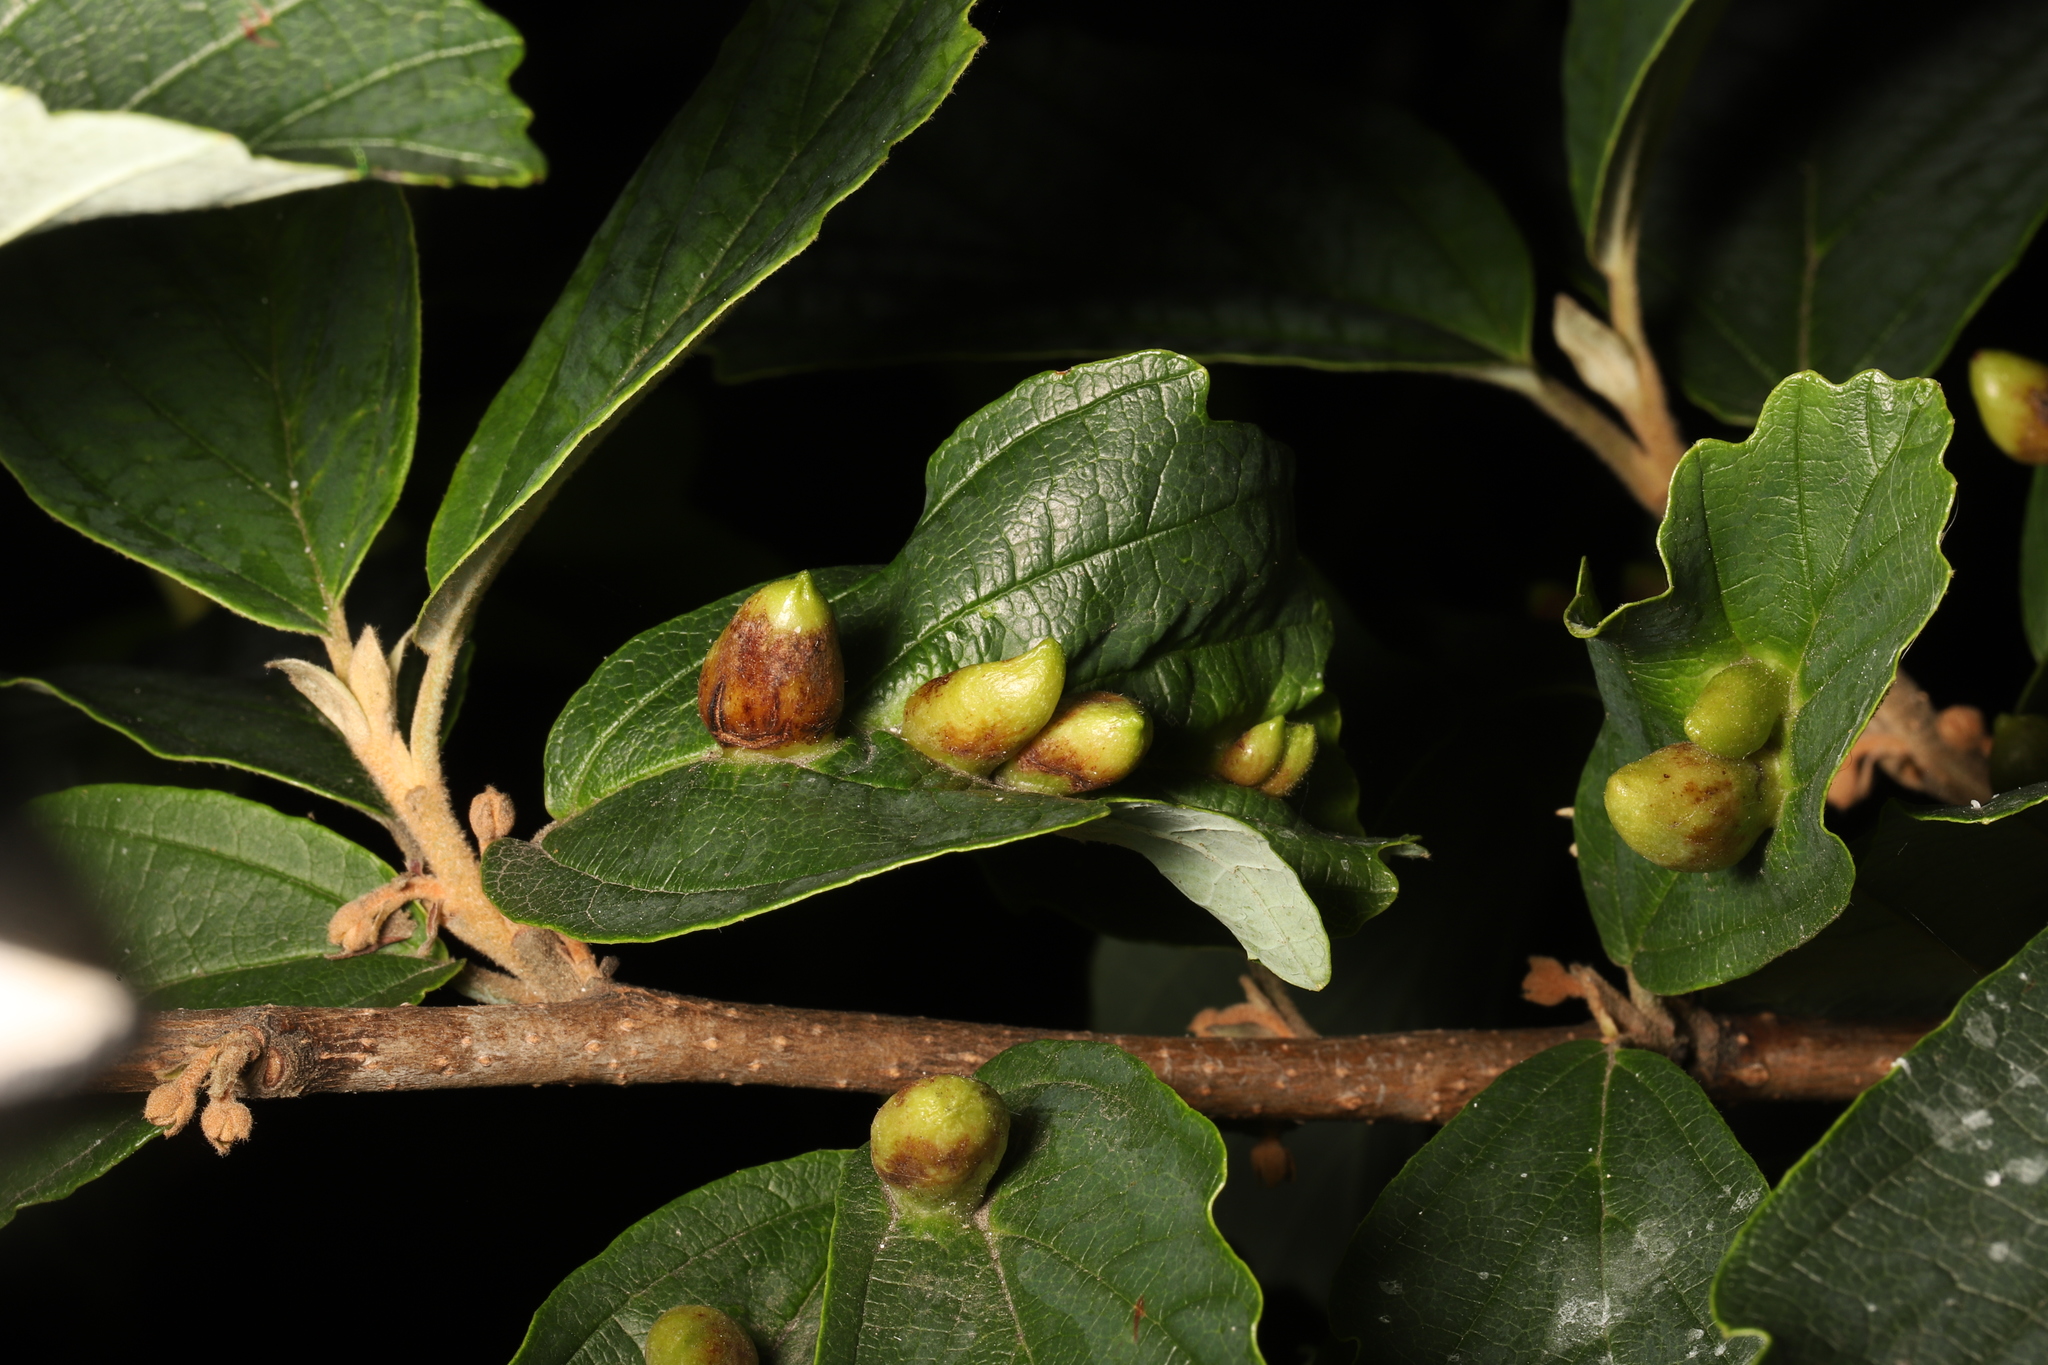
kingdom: Animalia
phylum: Arthropoda
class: Insecta
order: Hemiptera
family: Aphididae
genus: Hormaphis
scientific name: Hormaphis hamamelidis
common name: Witch-hazel cone gall aphid
